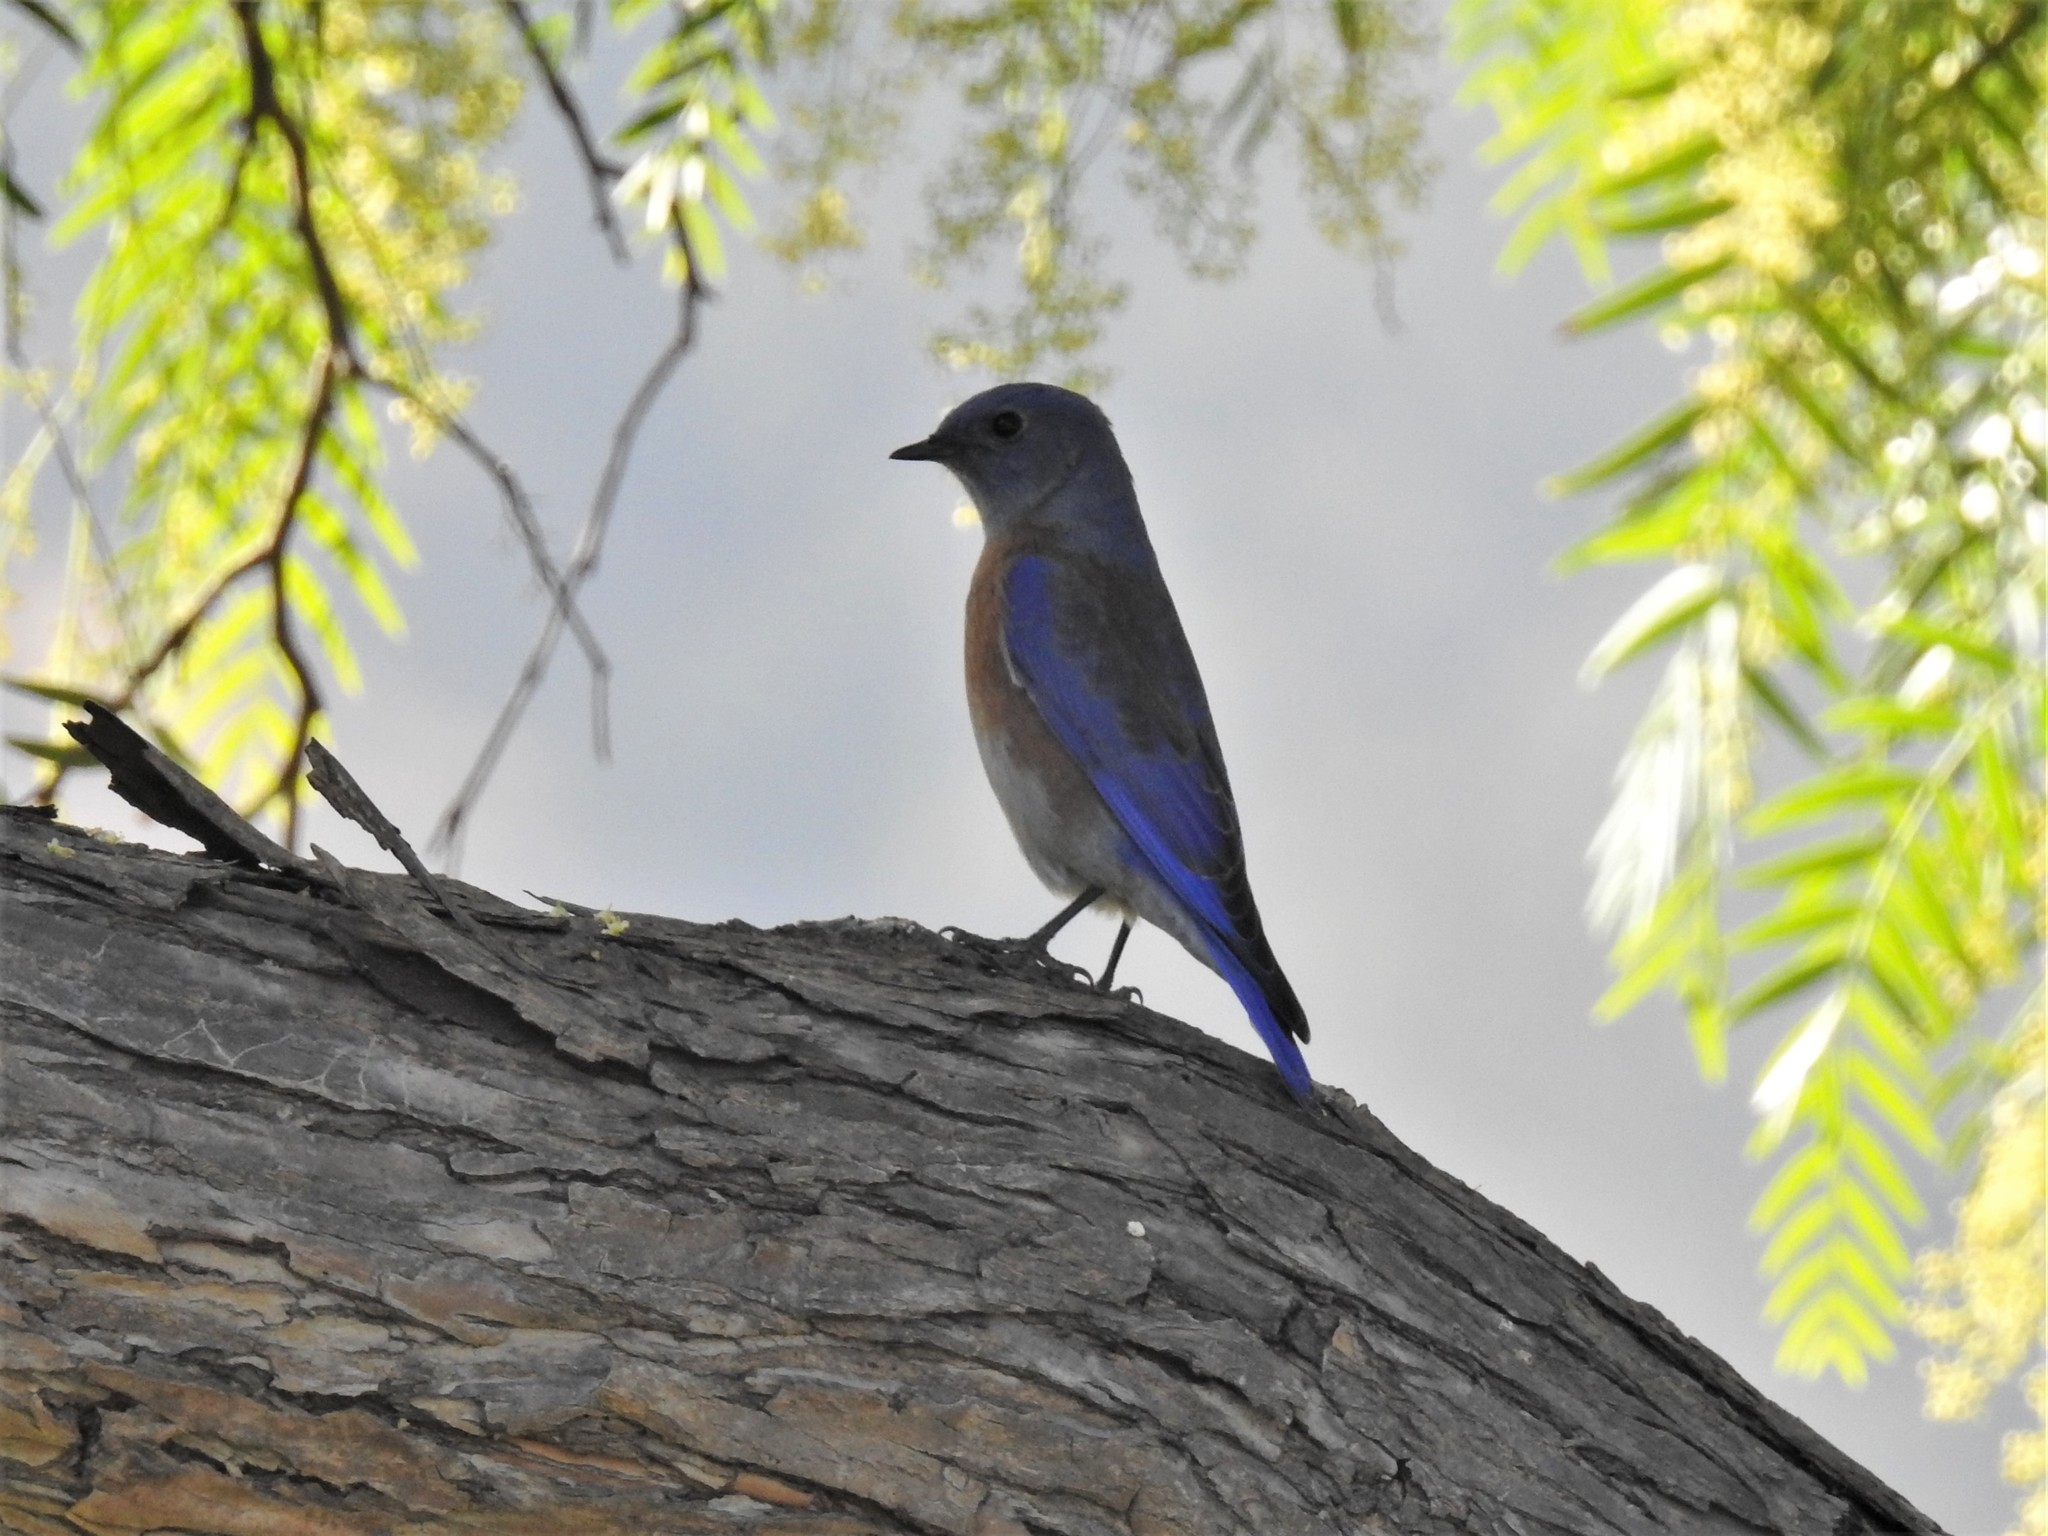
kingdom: Animalia
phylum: Chordata
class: Aves
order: Passeriformes
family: Turdidae
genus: Sialia
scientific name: Sialia mexicana
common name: Western bluebird
